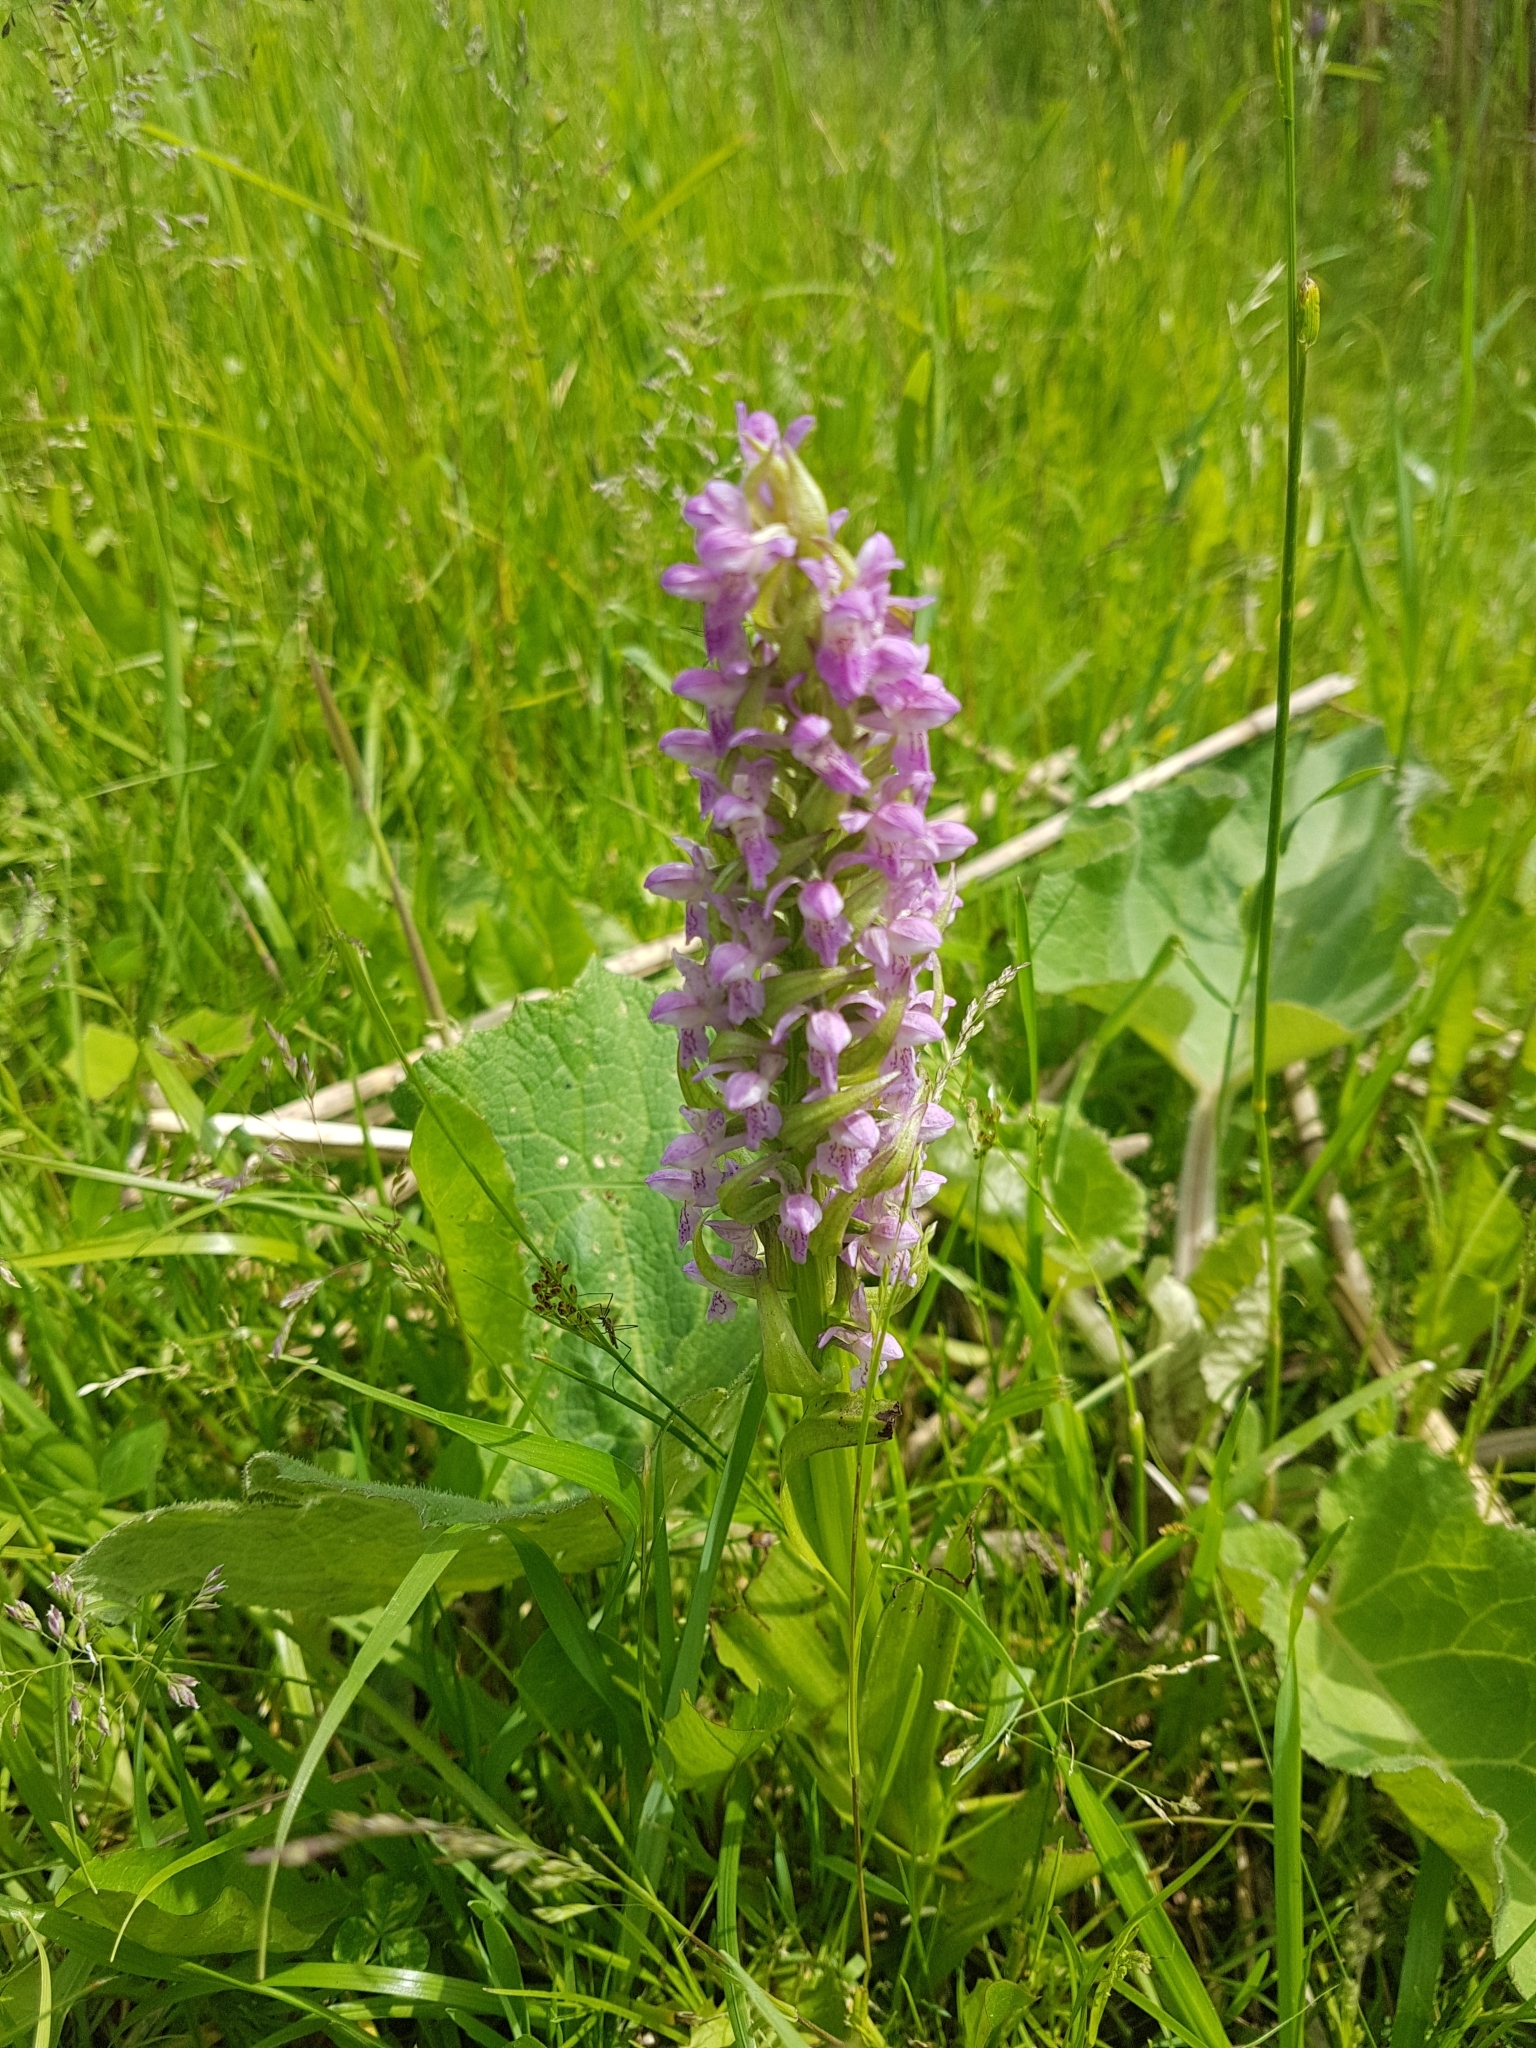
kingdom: Plantae
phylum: Tracheophyta
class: Liliopsida
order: Asparagales
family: Orchidaceae
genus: Dactylorhiza
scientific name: Dactylorhiza incarnata
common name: Early marsh-orchid
